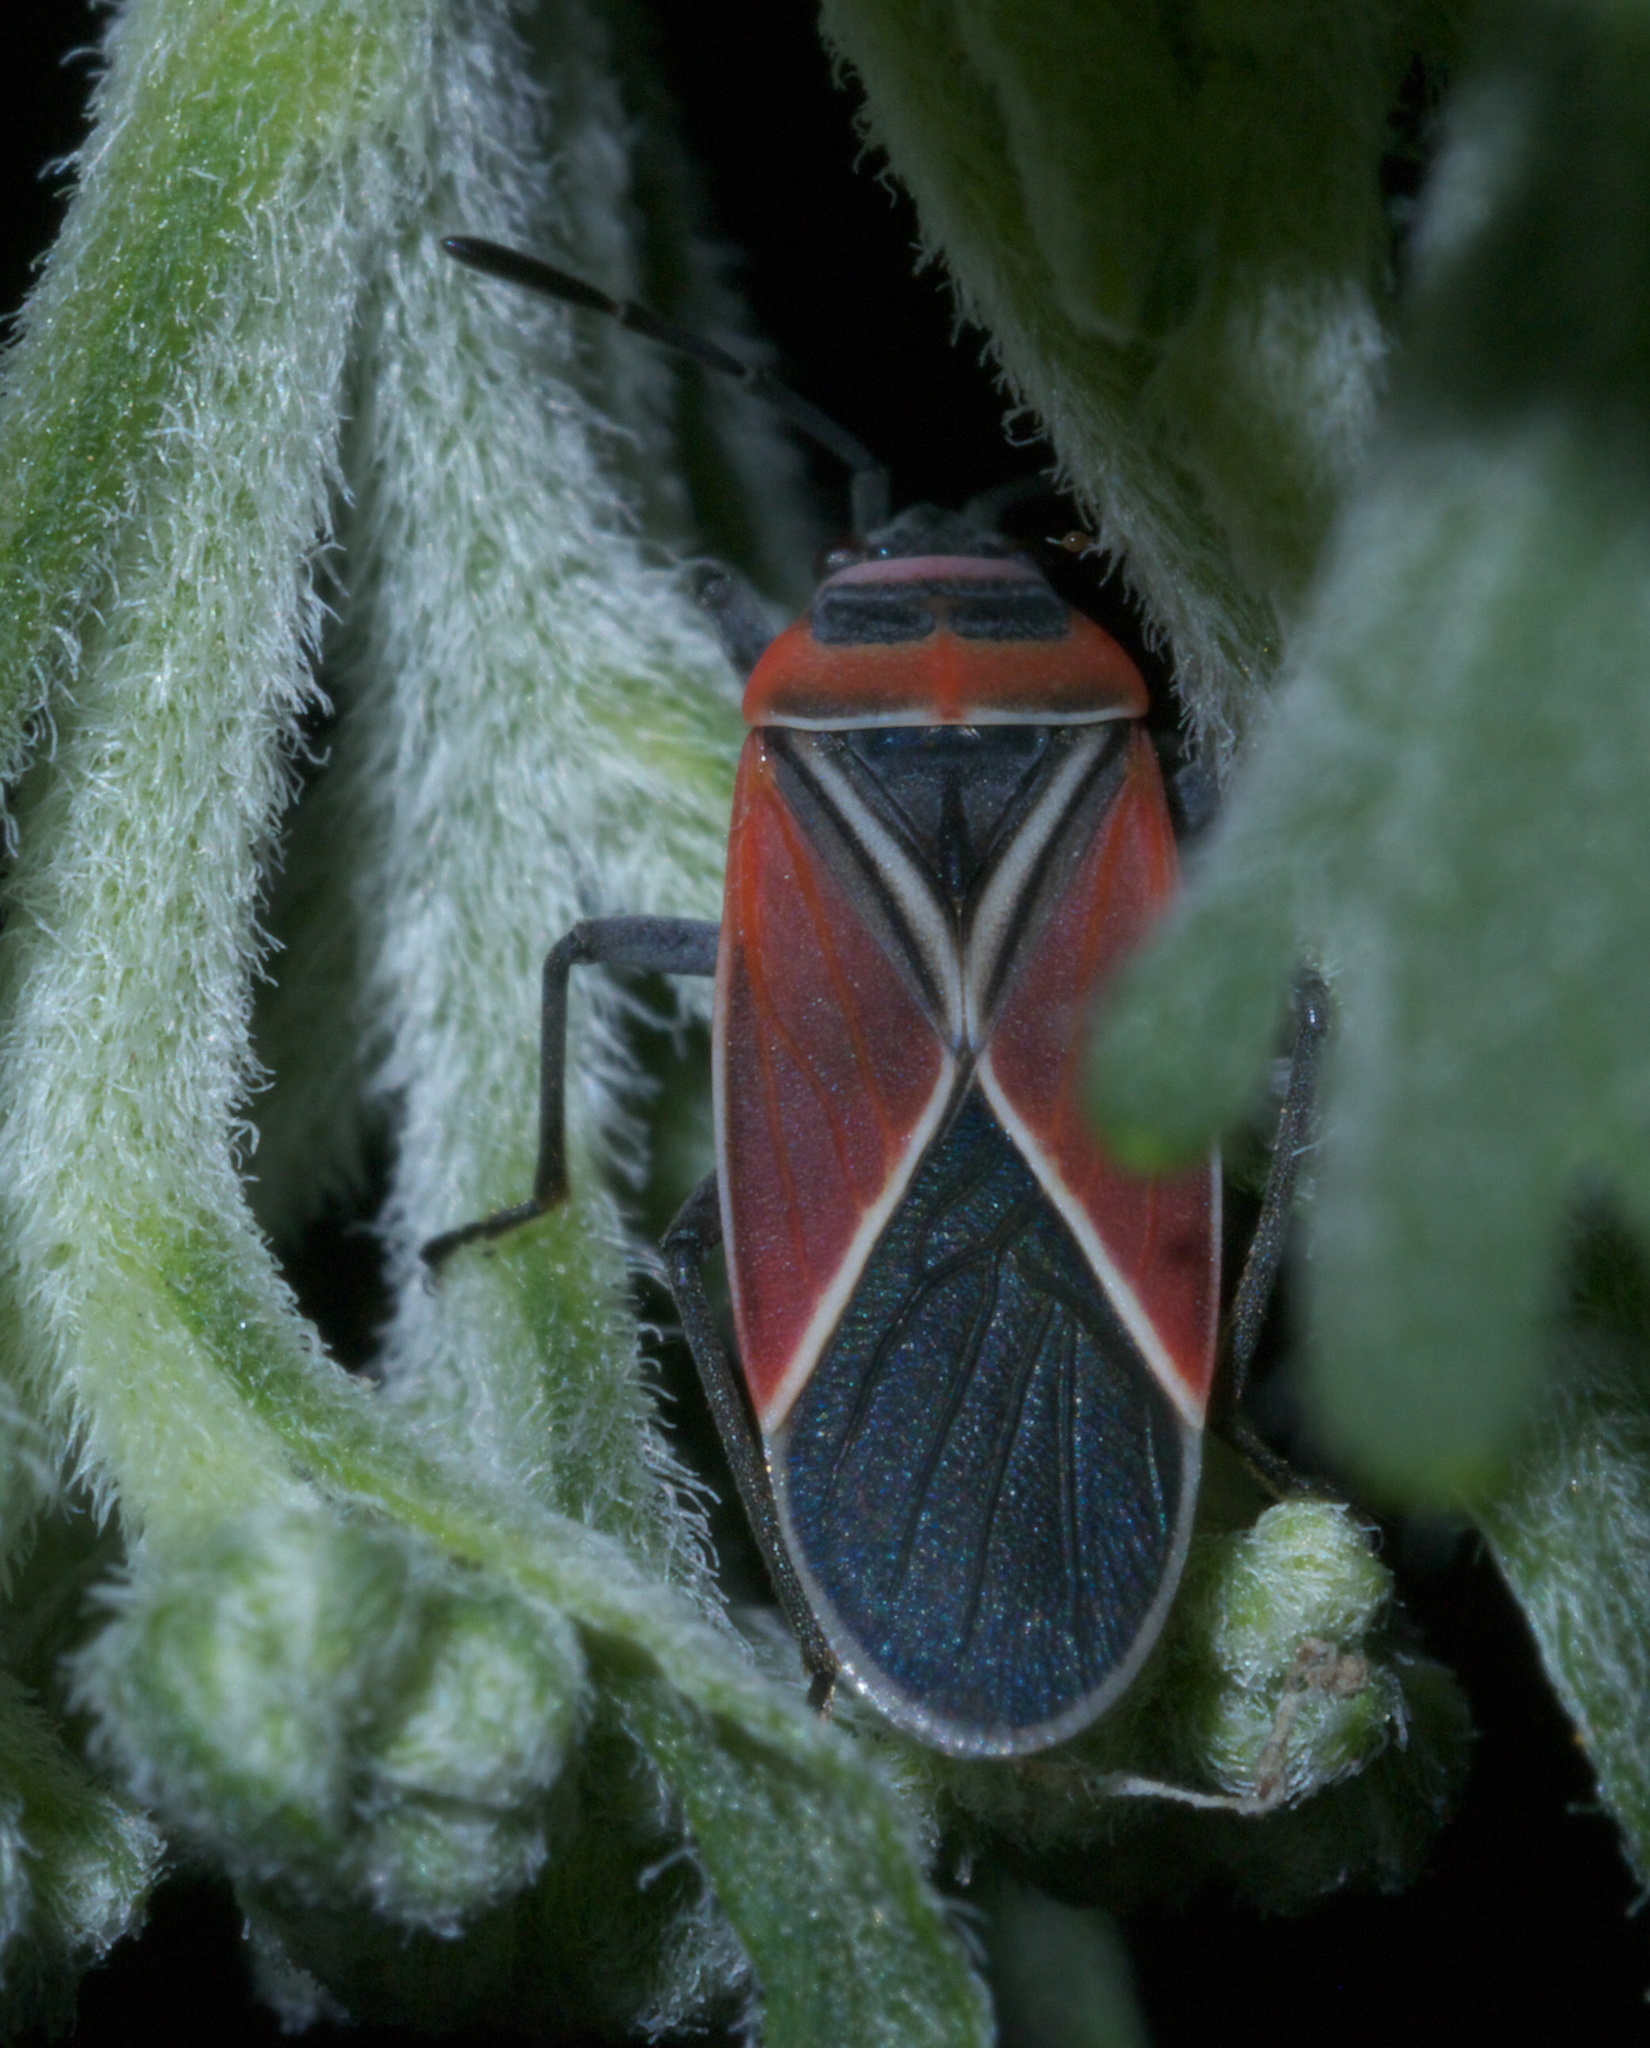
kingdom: Animalia
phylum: Arthropoda
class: Insecta
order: Hemiptera
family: Lygaeidae
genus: Neacoryphus
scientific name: Neacoryphus bicrucis
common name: Lygaeid bug
